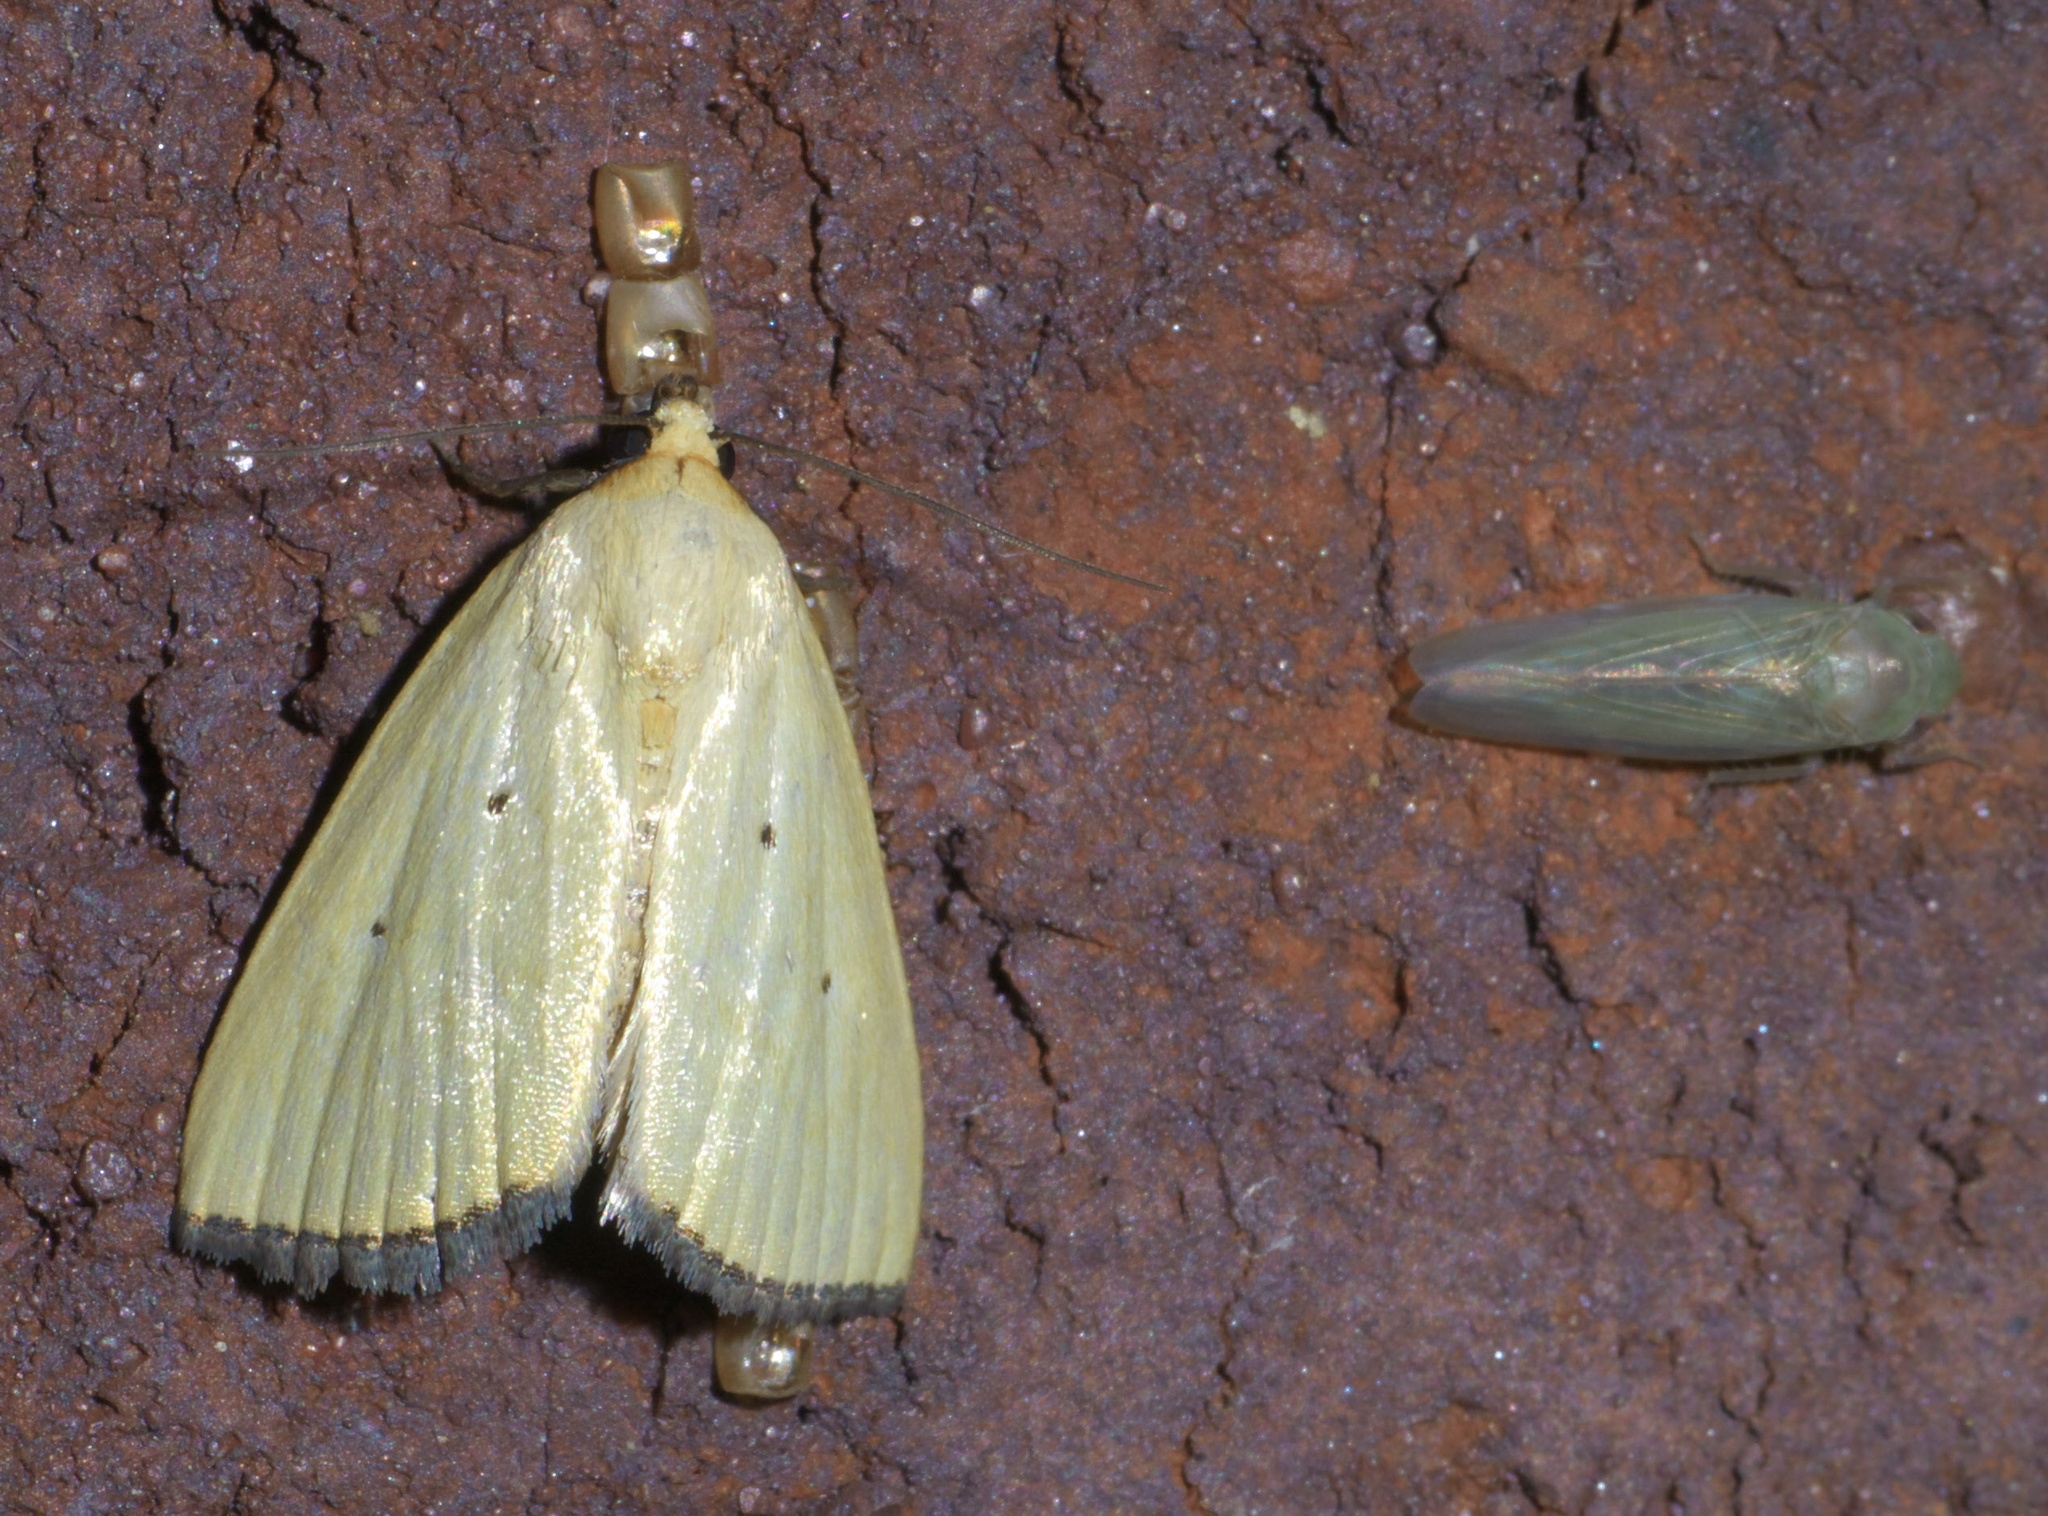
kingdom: Animalia
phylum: Arthropoda
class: Insecta
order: Lepidoptera
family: Noctuidae
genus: Marimatha
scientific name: Marimatha nigrofimbria
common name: Black-bordered lemon moth
